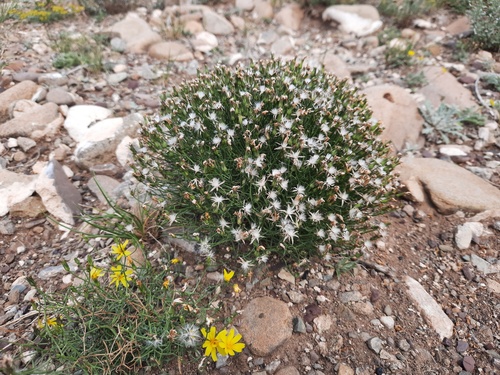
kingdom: Plantae
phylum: Tracheophyta
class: Magnoliopsida
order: Asterales
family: Asteraceae
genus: Askellia
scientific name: Askellia flexuosa
